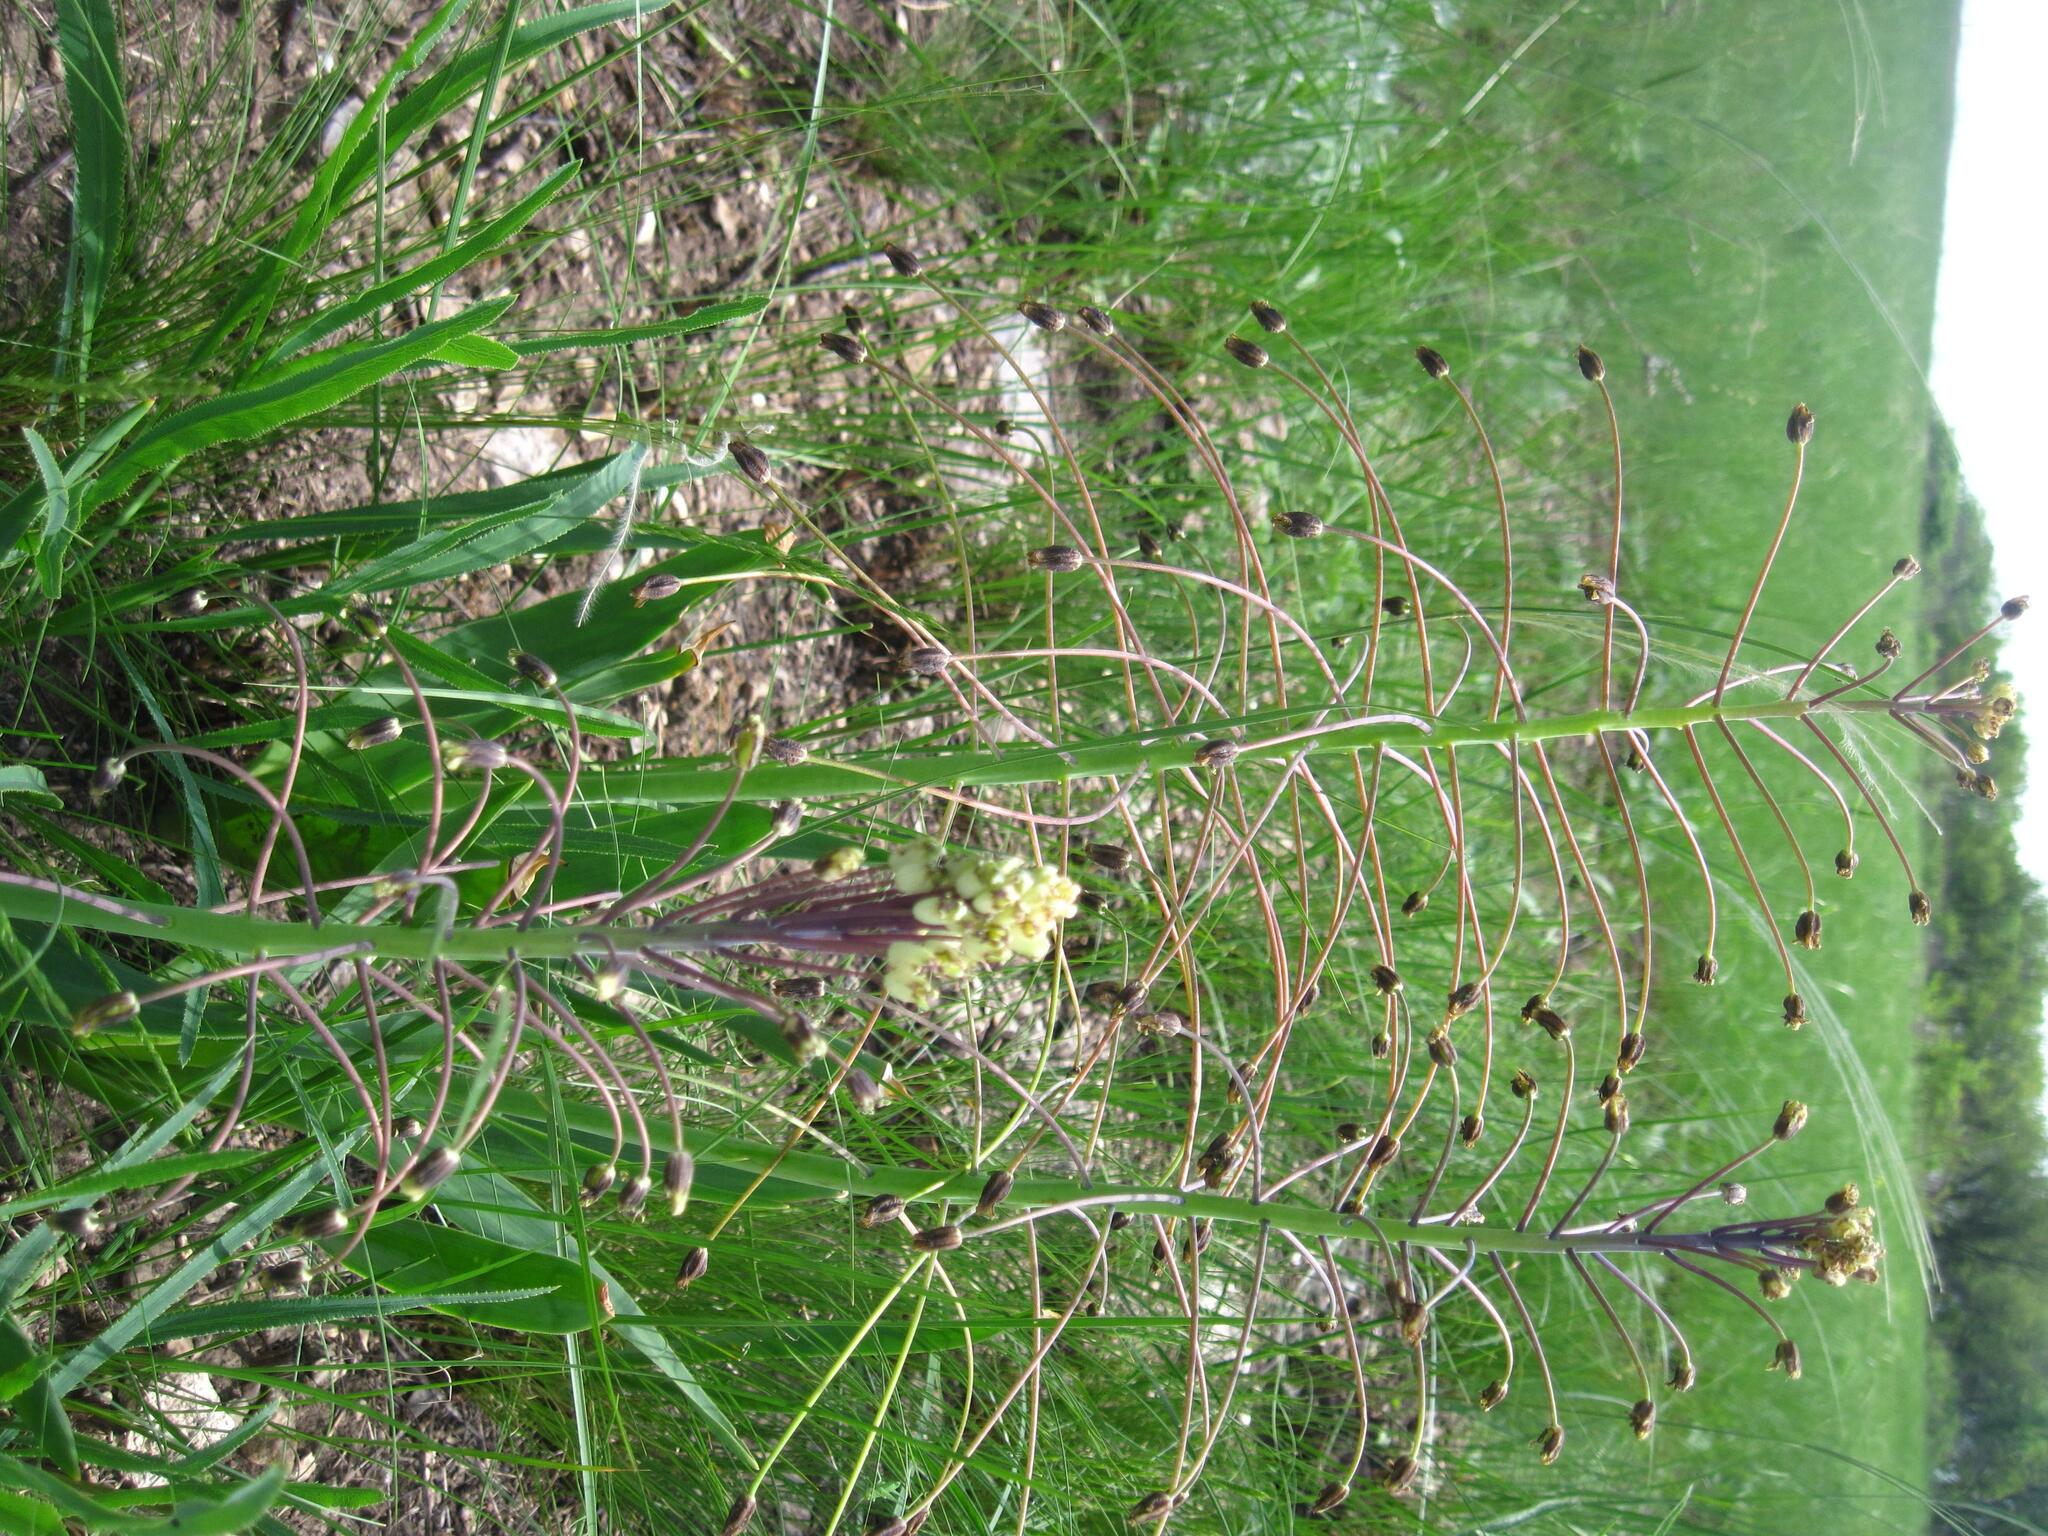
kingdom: Plantae
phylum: Tracheophyta
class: Liliopsida
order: Asparagales
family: Asparagaceae
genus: Bellevalia
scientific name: Bellevalia speciosa
